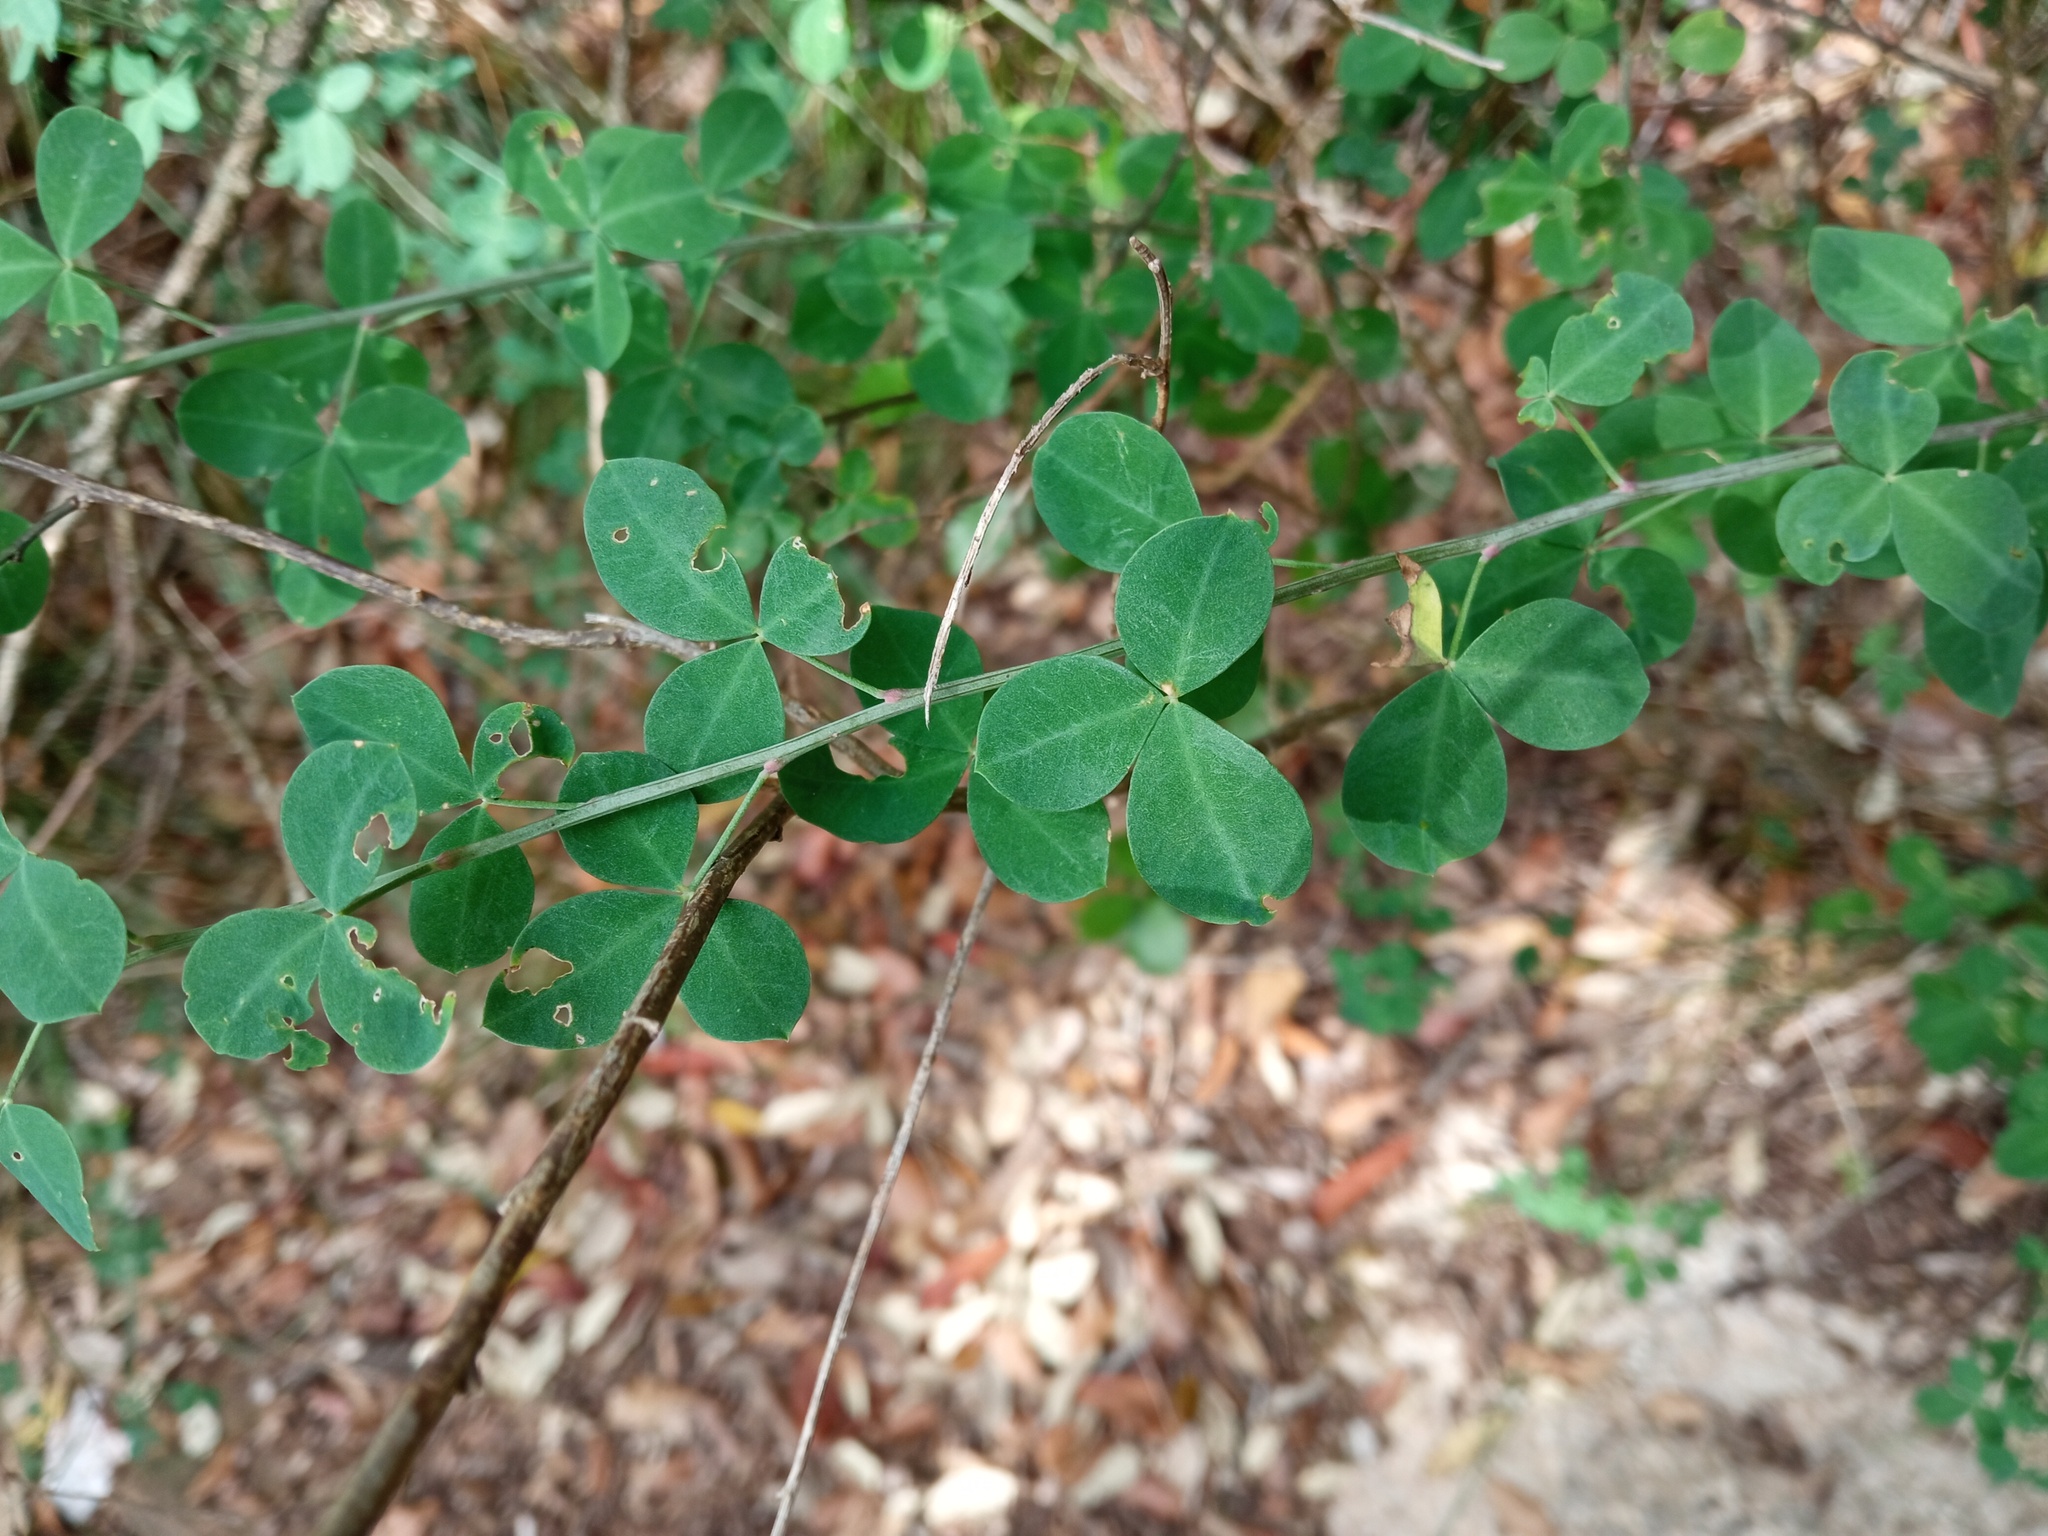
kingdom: Plantae
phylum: Tracheophyta
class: Magnoliopsida
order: Fabales
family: Fabaceae
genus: Cytisophyllum
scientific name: Cytisophyllum sessilifolium
